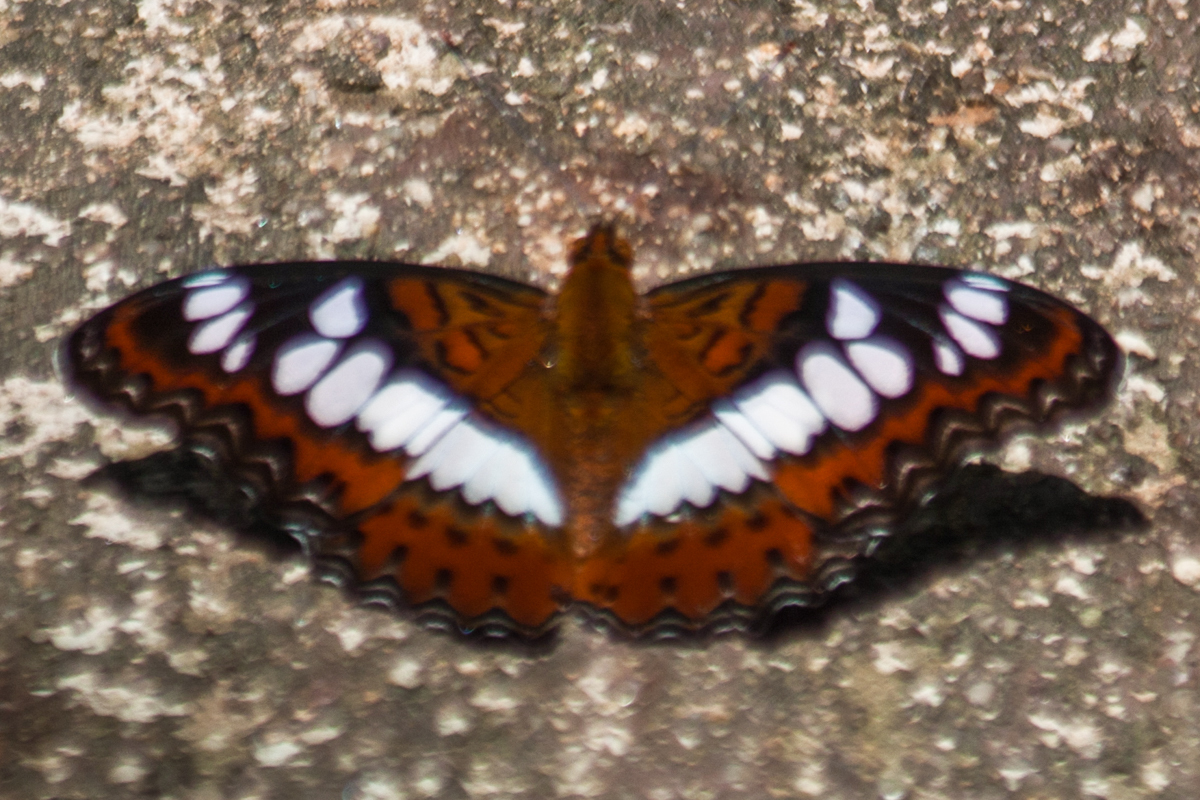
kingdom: Animalia
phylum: Arthropoda
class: Insecta
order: Lepidoptera
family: Nymphalidae
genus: Limenitis
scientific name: Limenitis Moduza procris
